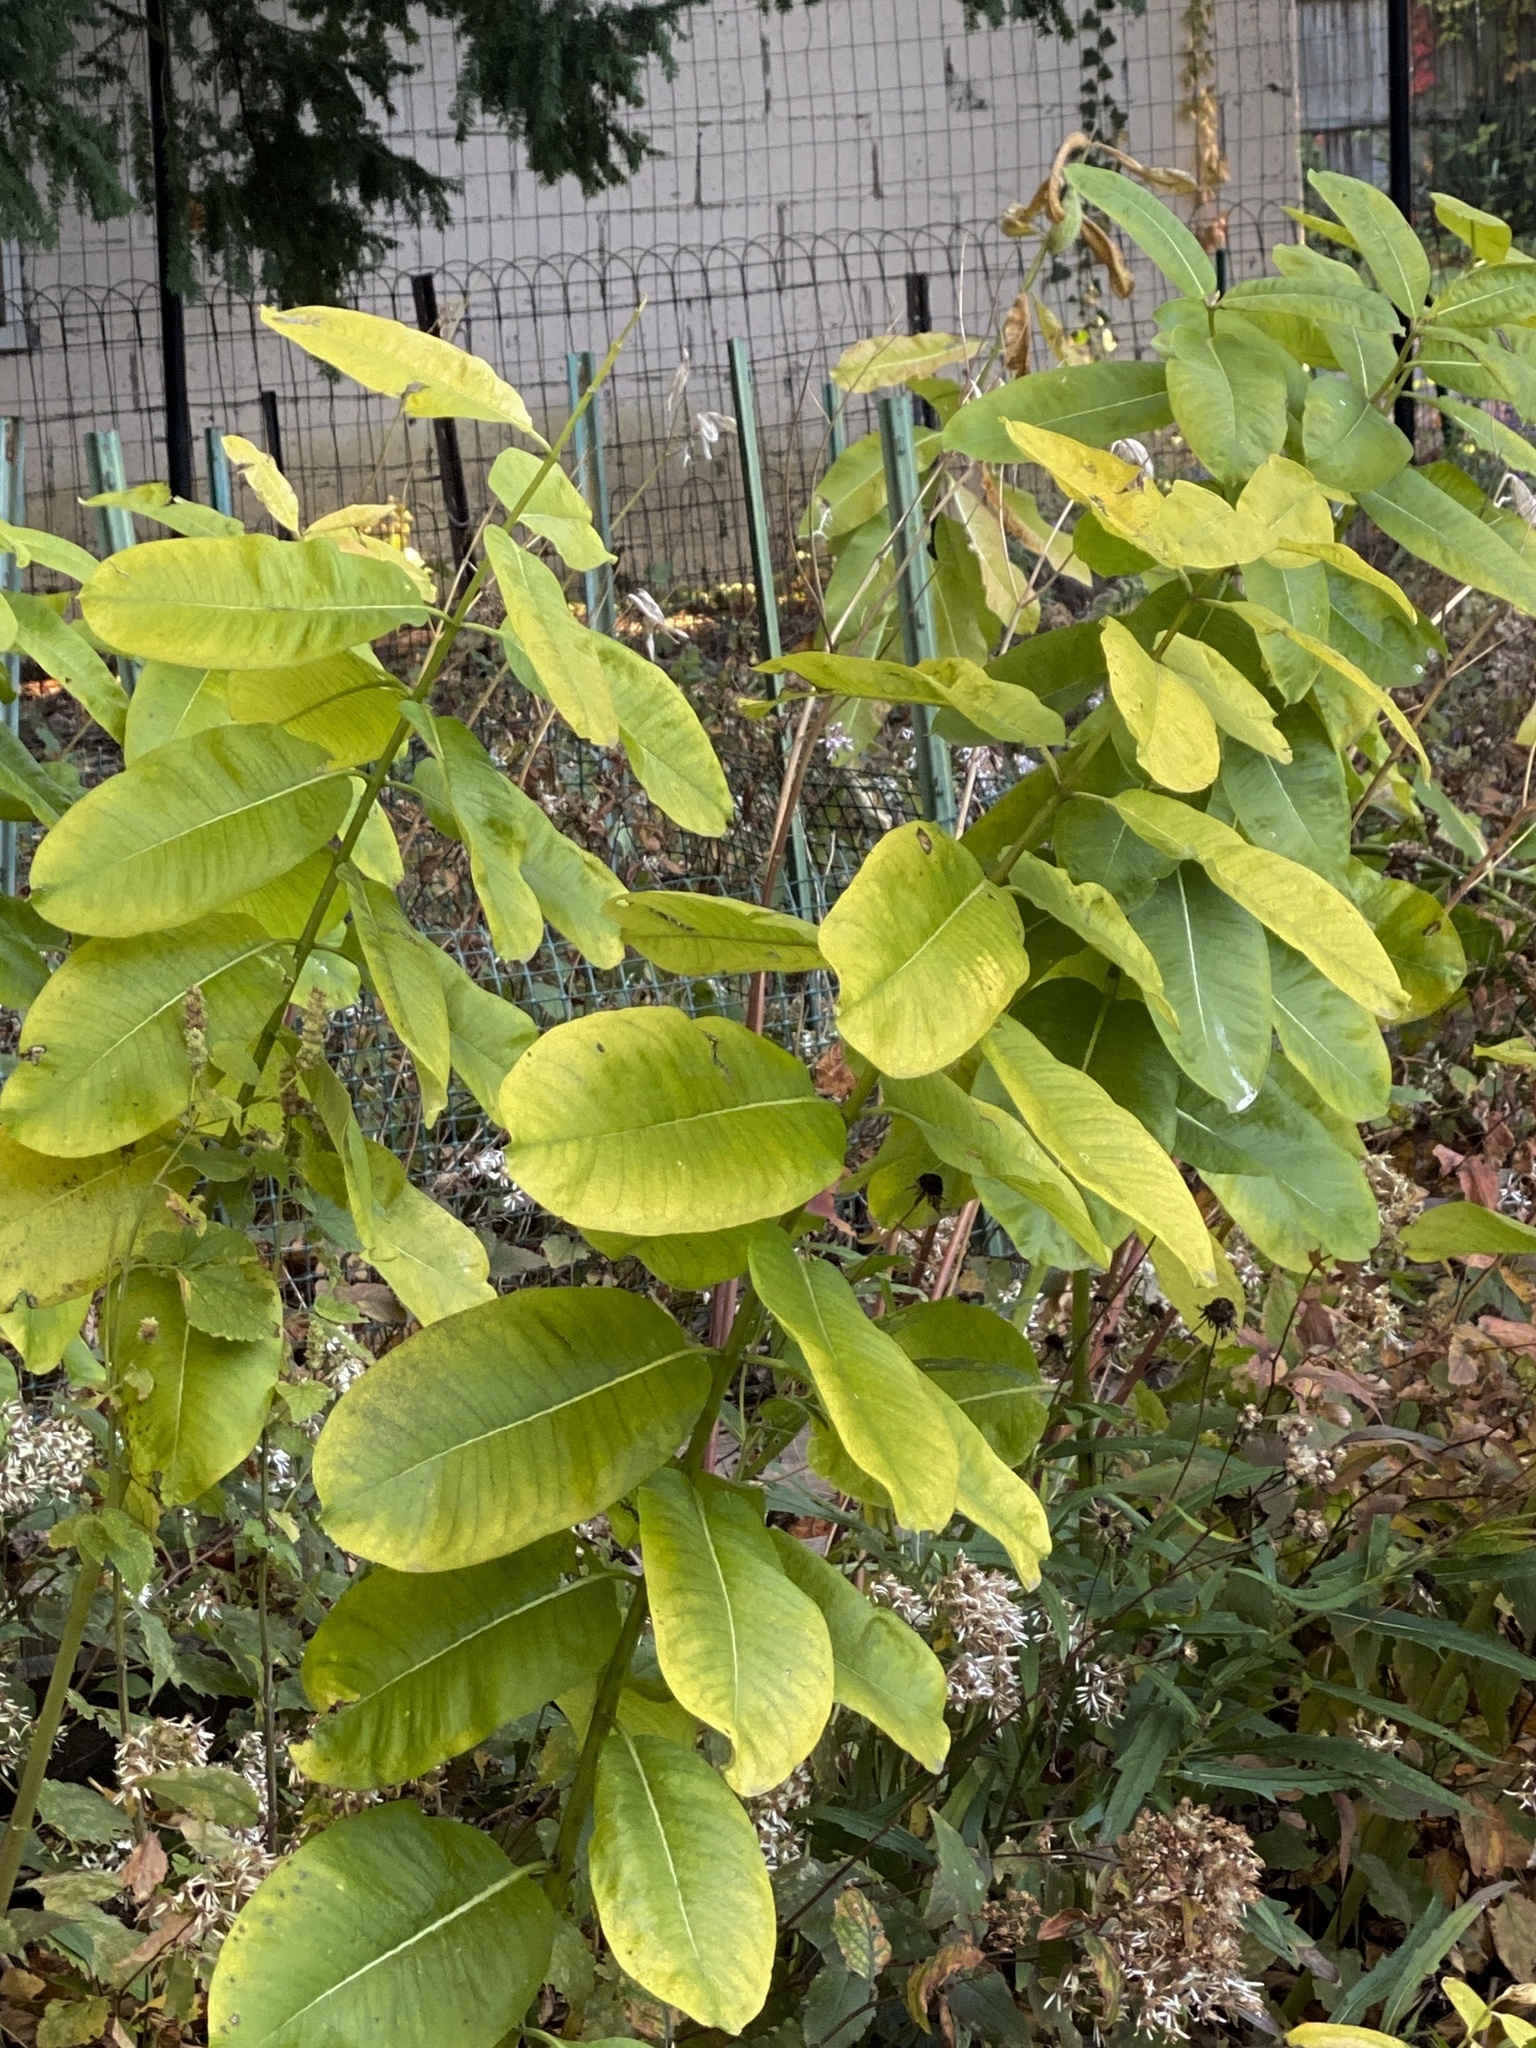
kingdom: Plantae
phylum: Tracheophyta
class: Magnoliopsida
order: Gentianales
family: Apocynaceae
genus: Asclepias
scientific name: Asclepias syriaca
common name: Common milkweed
